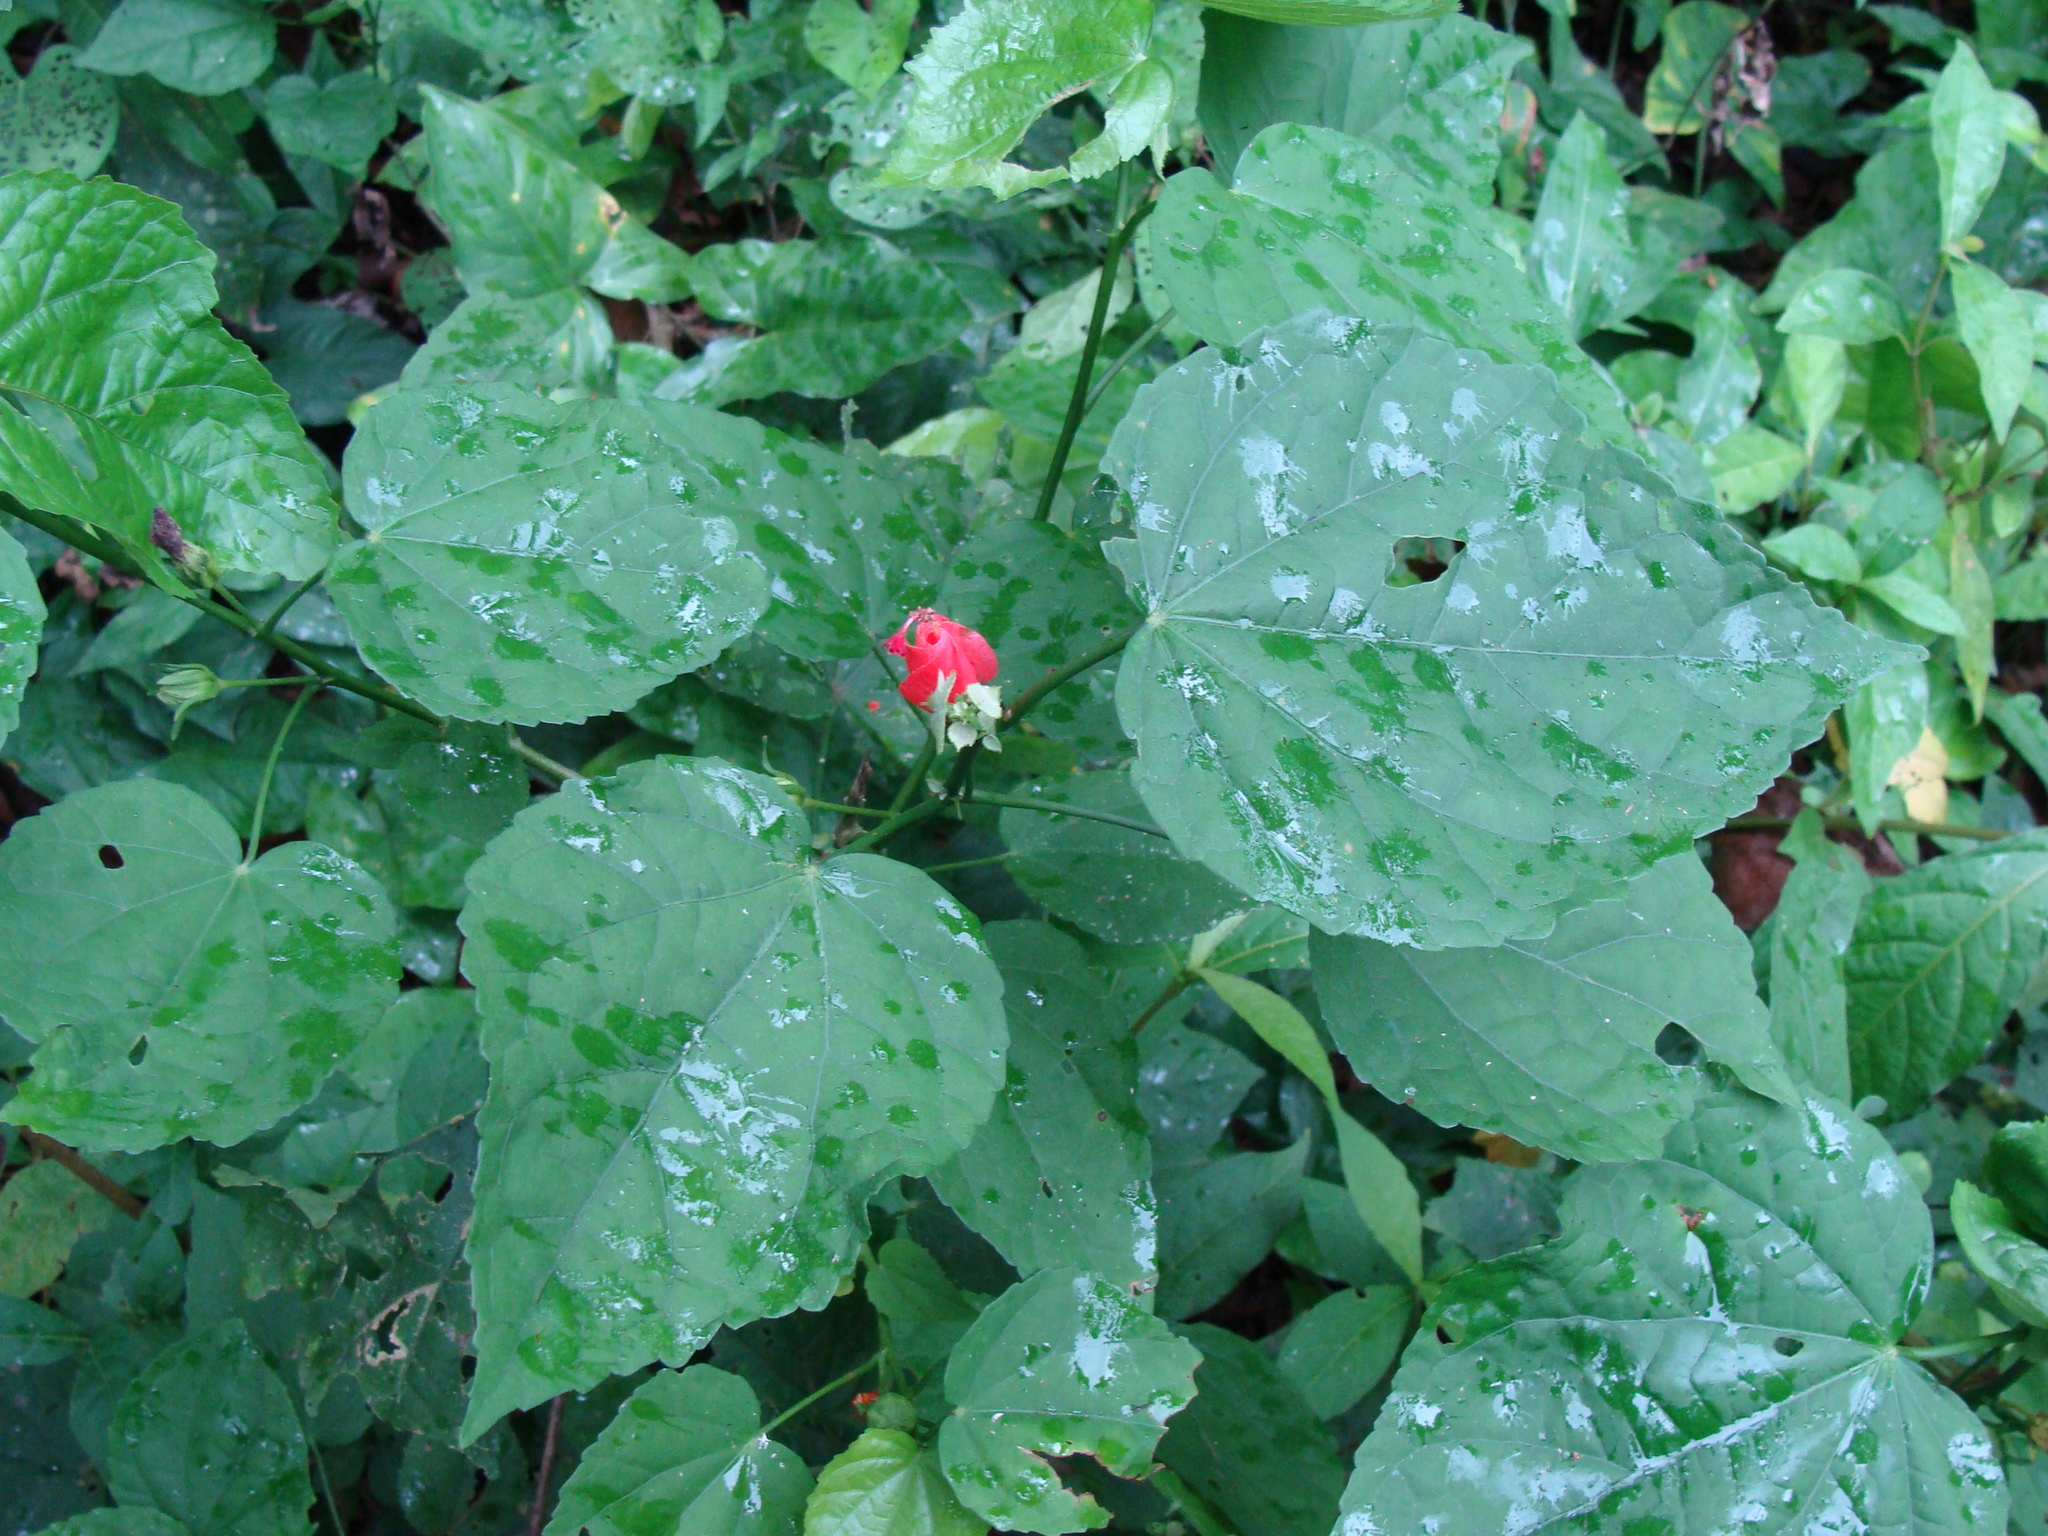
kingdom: Plantae
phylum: Tracheophyta
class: Magnoliopsida
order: Malvales
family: Malvaceae
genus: Malvaviscus
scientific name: Malvaviscus arboreus
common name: Wax mallow
